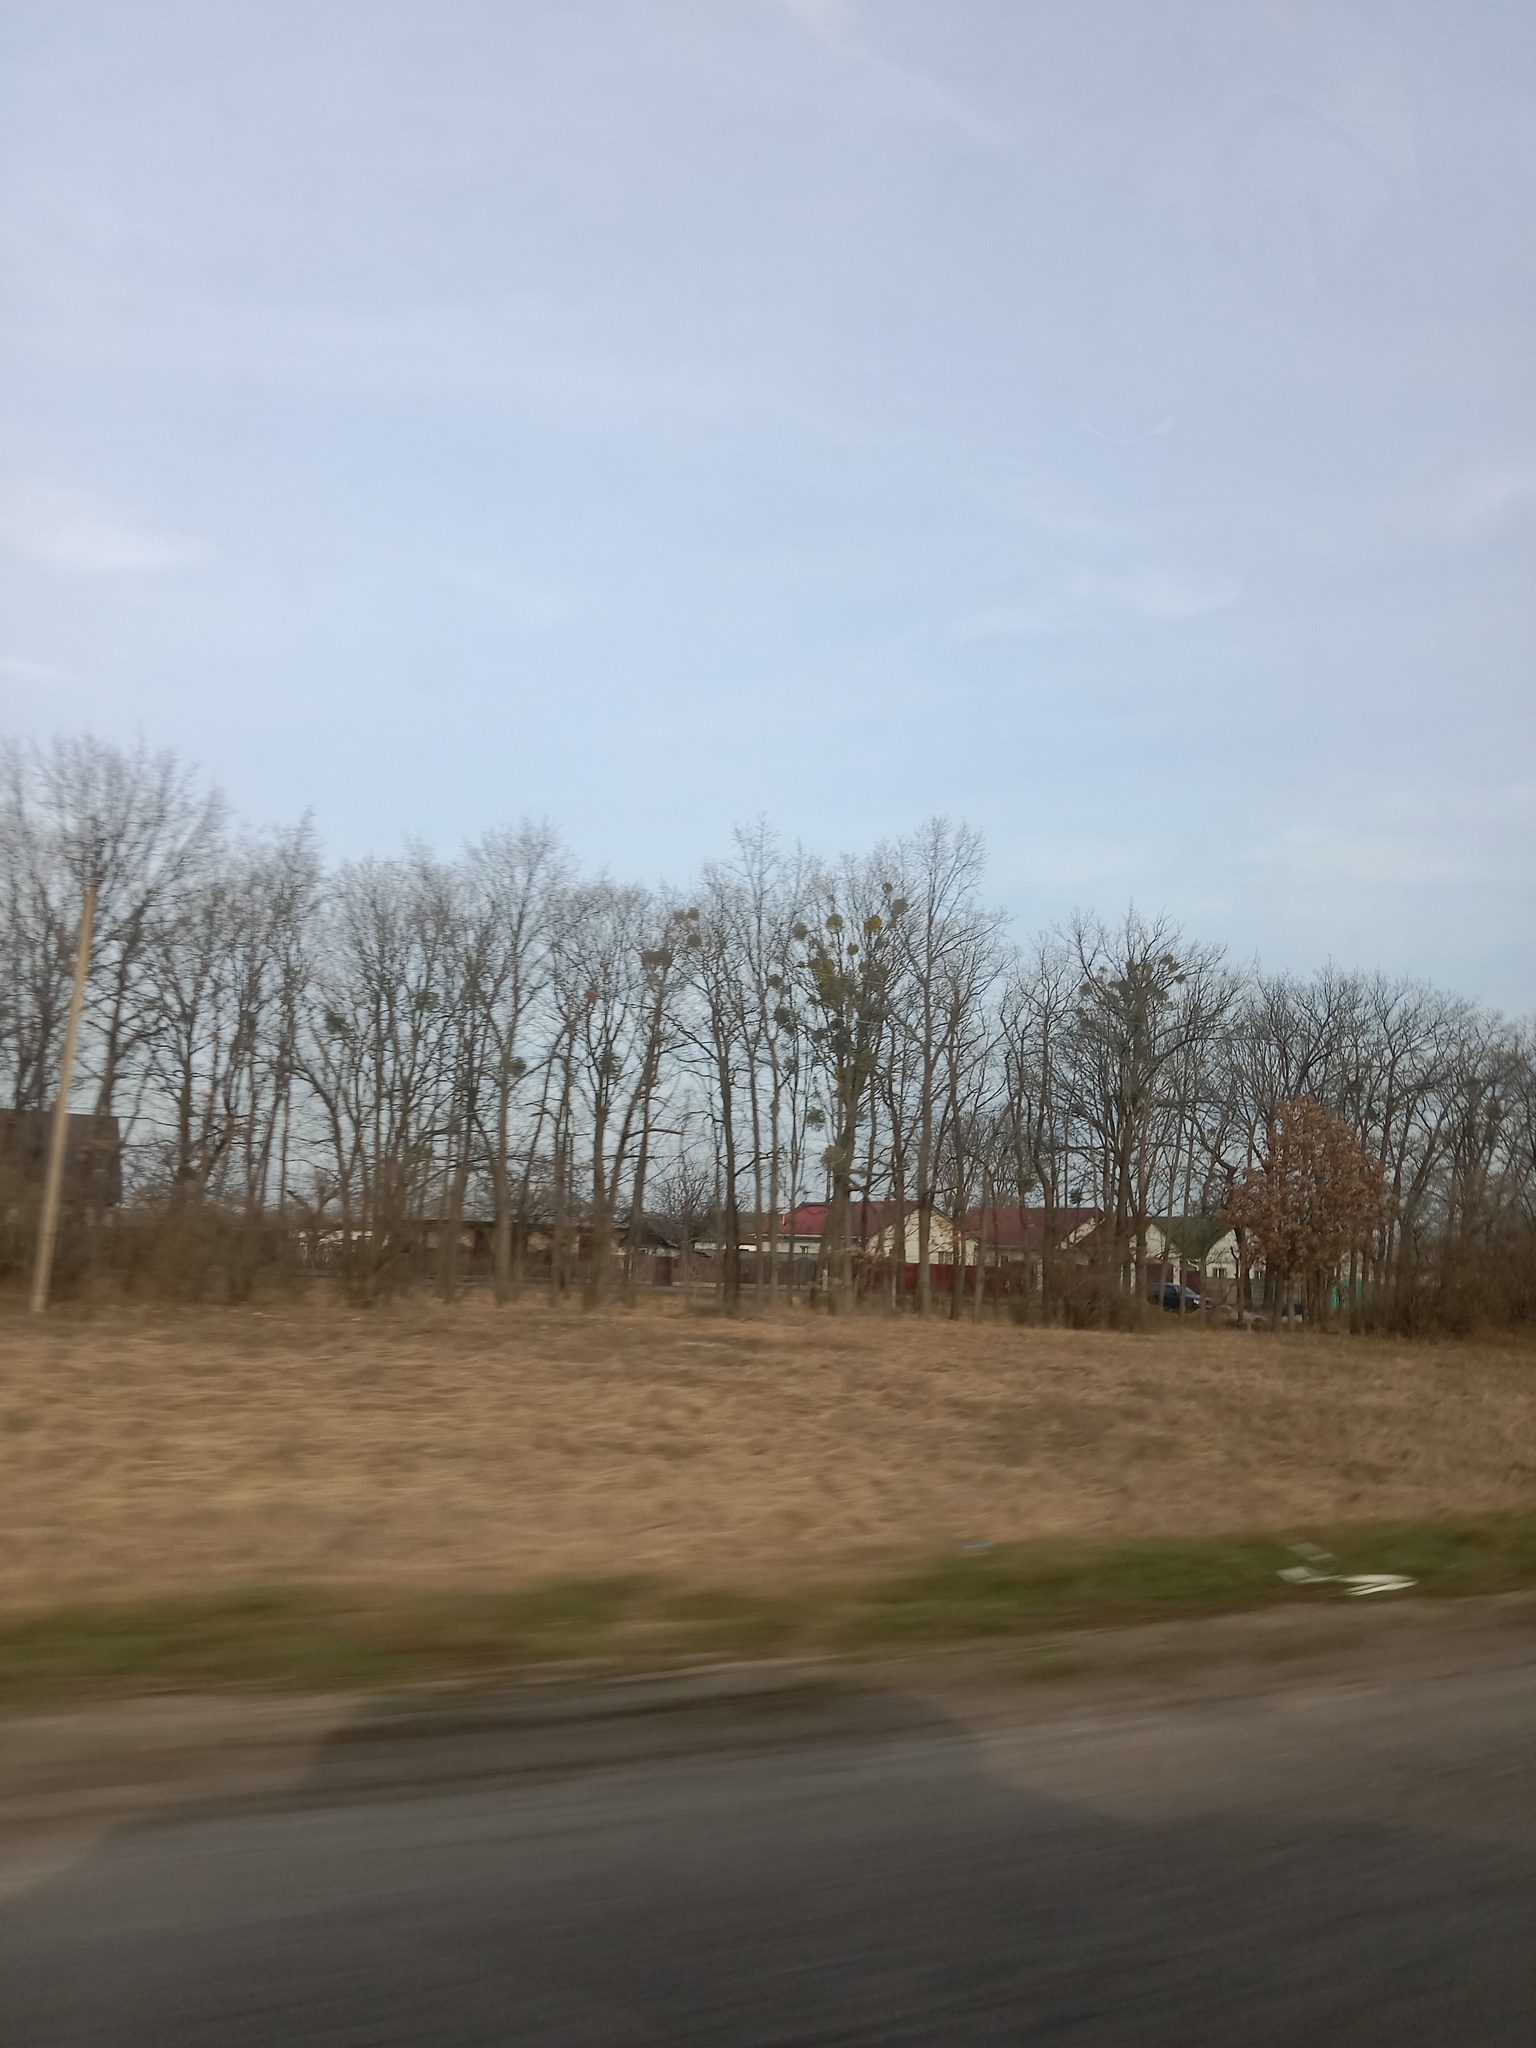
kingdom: Plantae
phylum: Tracheophyta
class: Magnoliopsida
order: Santalales
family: Viscaceae
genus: Viscum
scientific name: Viscum album
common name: Mistletoe
